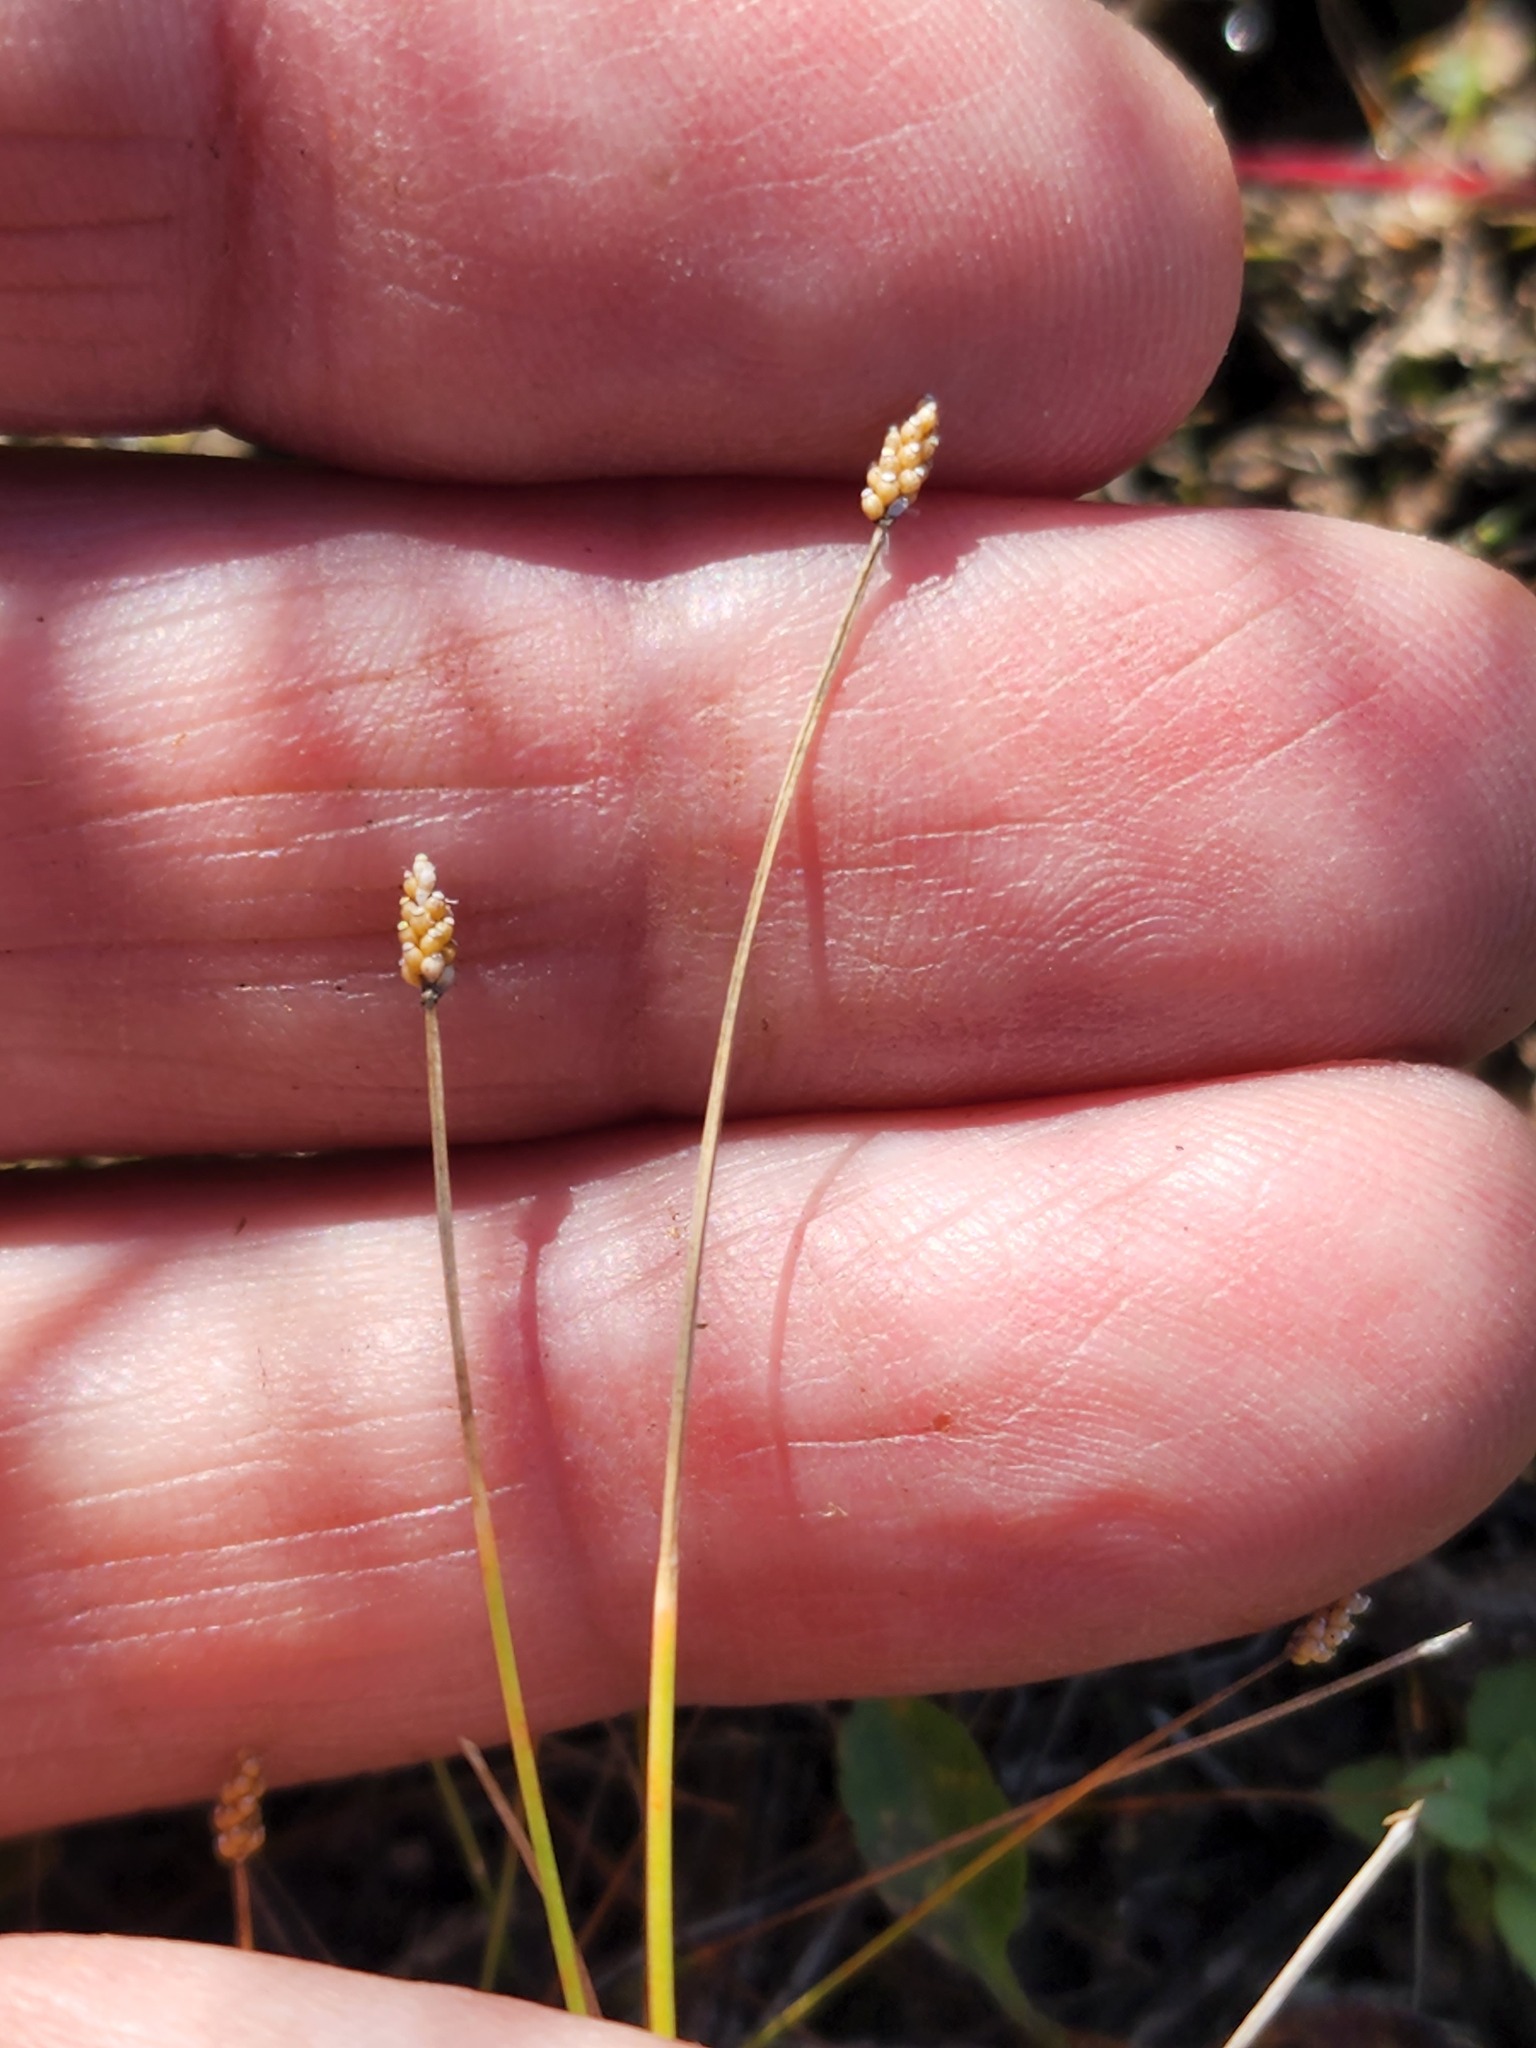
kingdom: Plantae
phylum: Tracheophyta
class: Liliopsida
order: Poales
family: Cyperaceae
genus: Eleocharis
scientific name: Eleocharis nitida
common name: Neat spikerush
